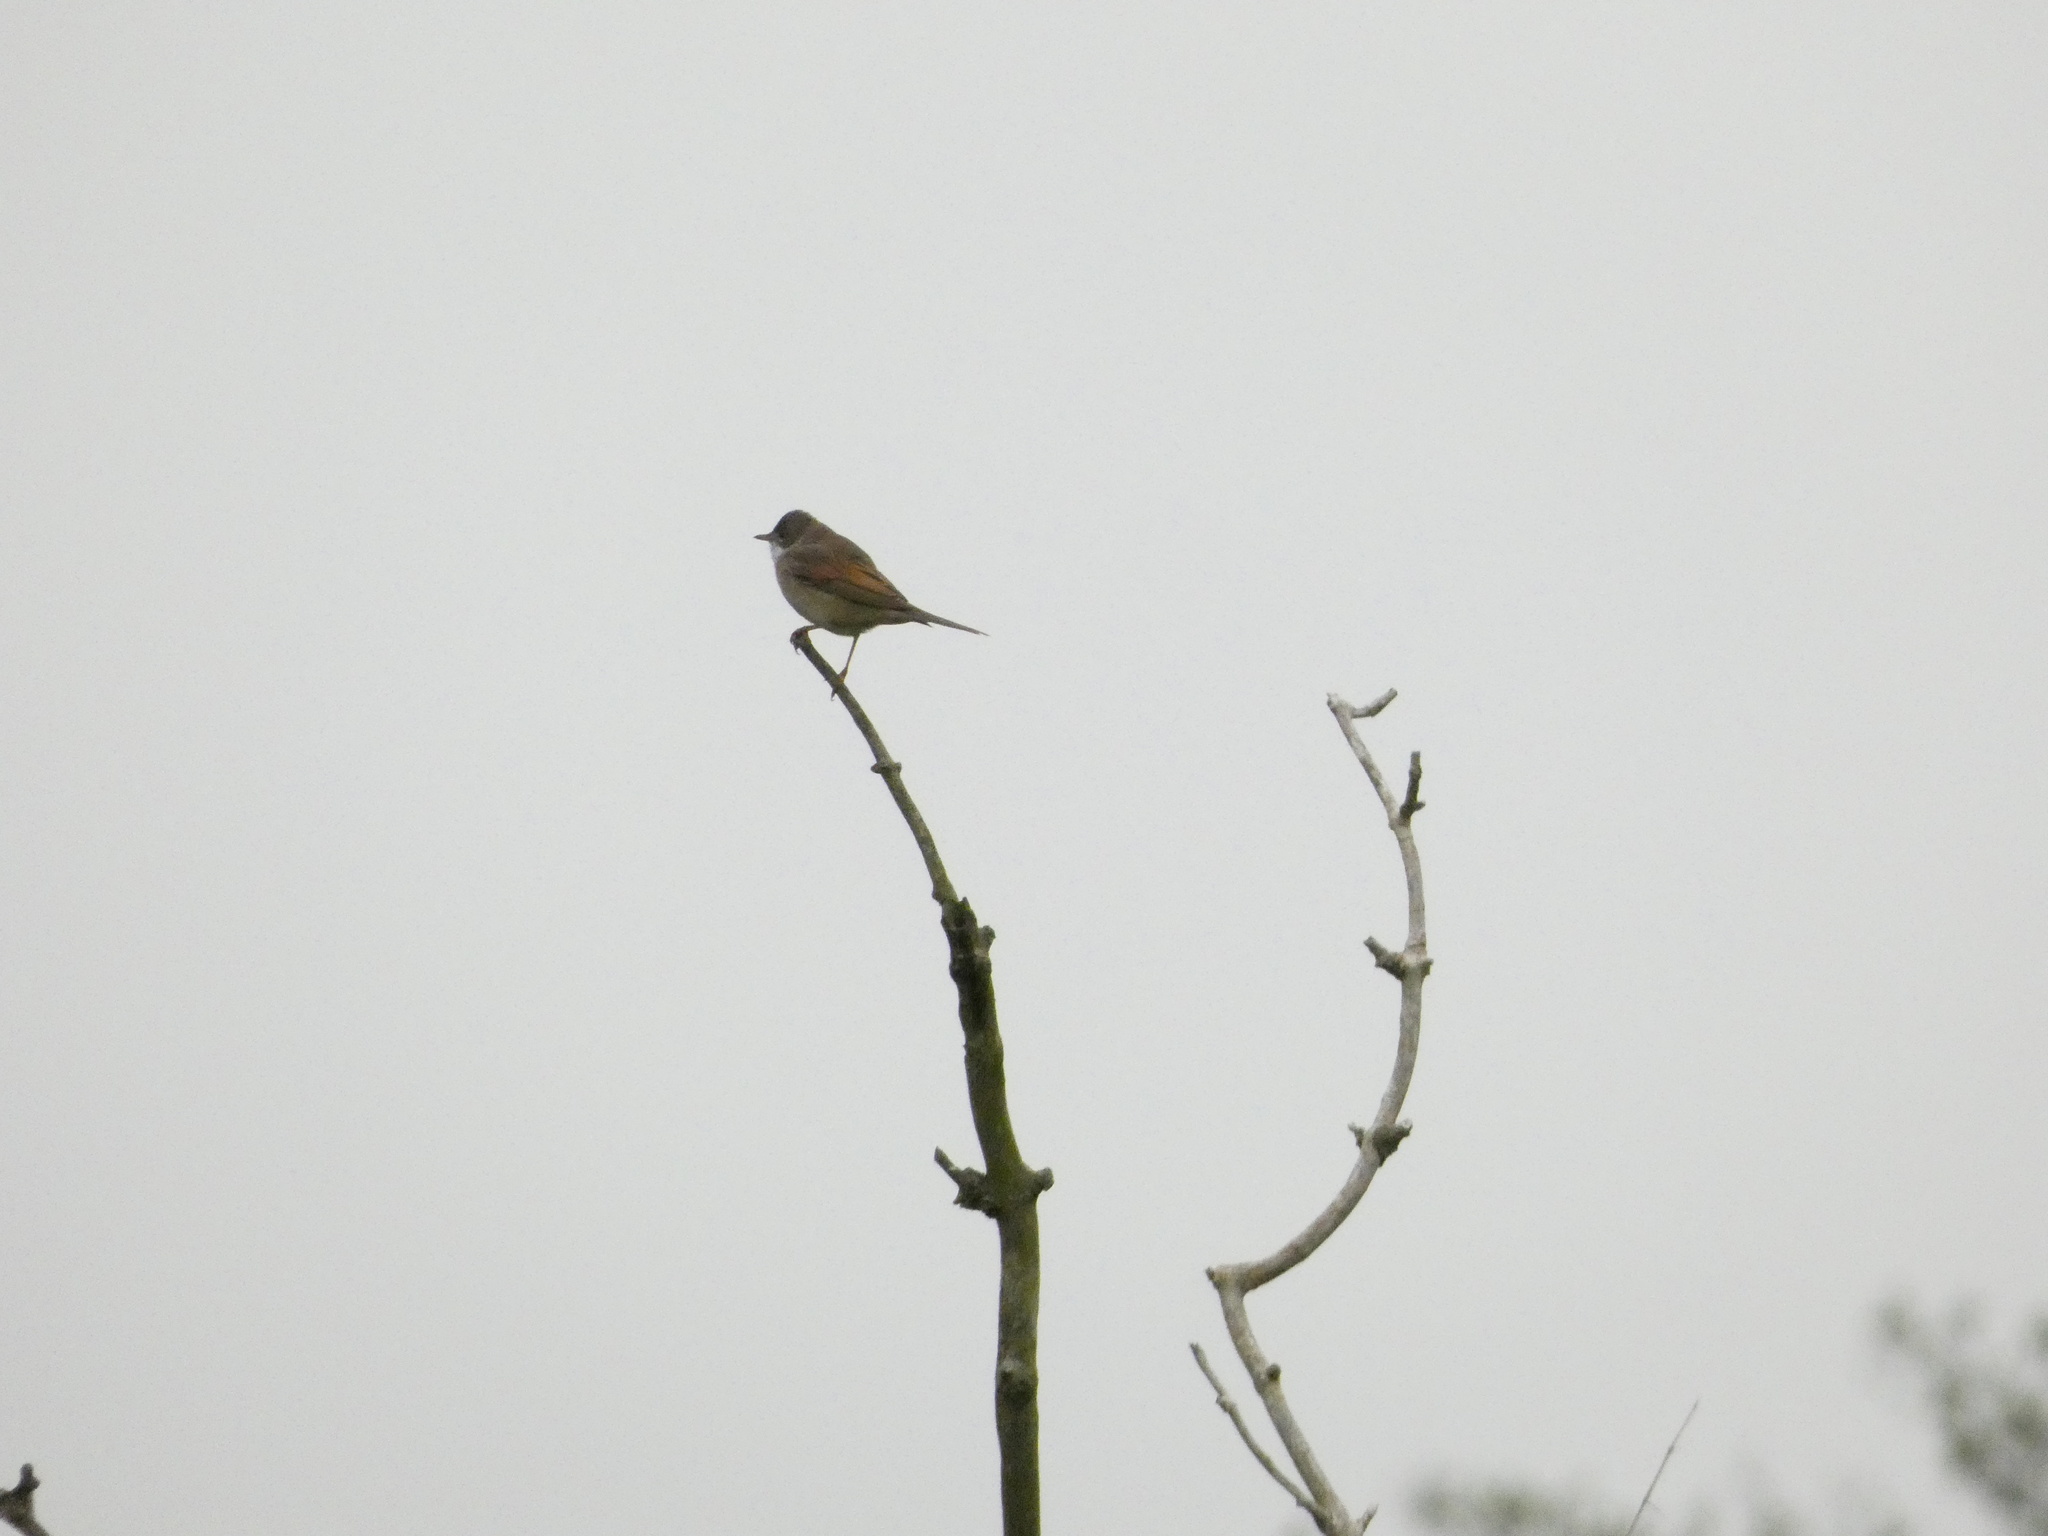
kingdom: Animalia
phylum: Chordata
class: Aves
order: Passeriformes
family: Sylviidae
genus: Sylvia
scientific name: Sylvia communis
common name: Common whitethroat
